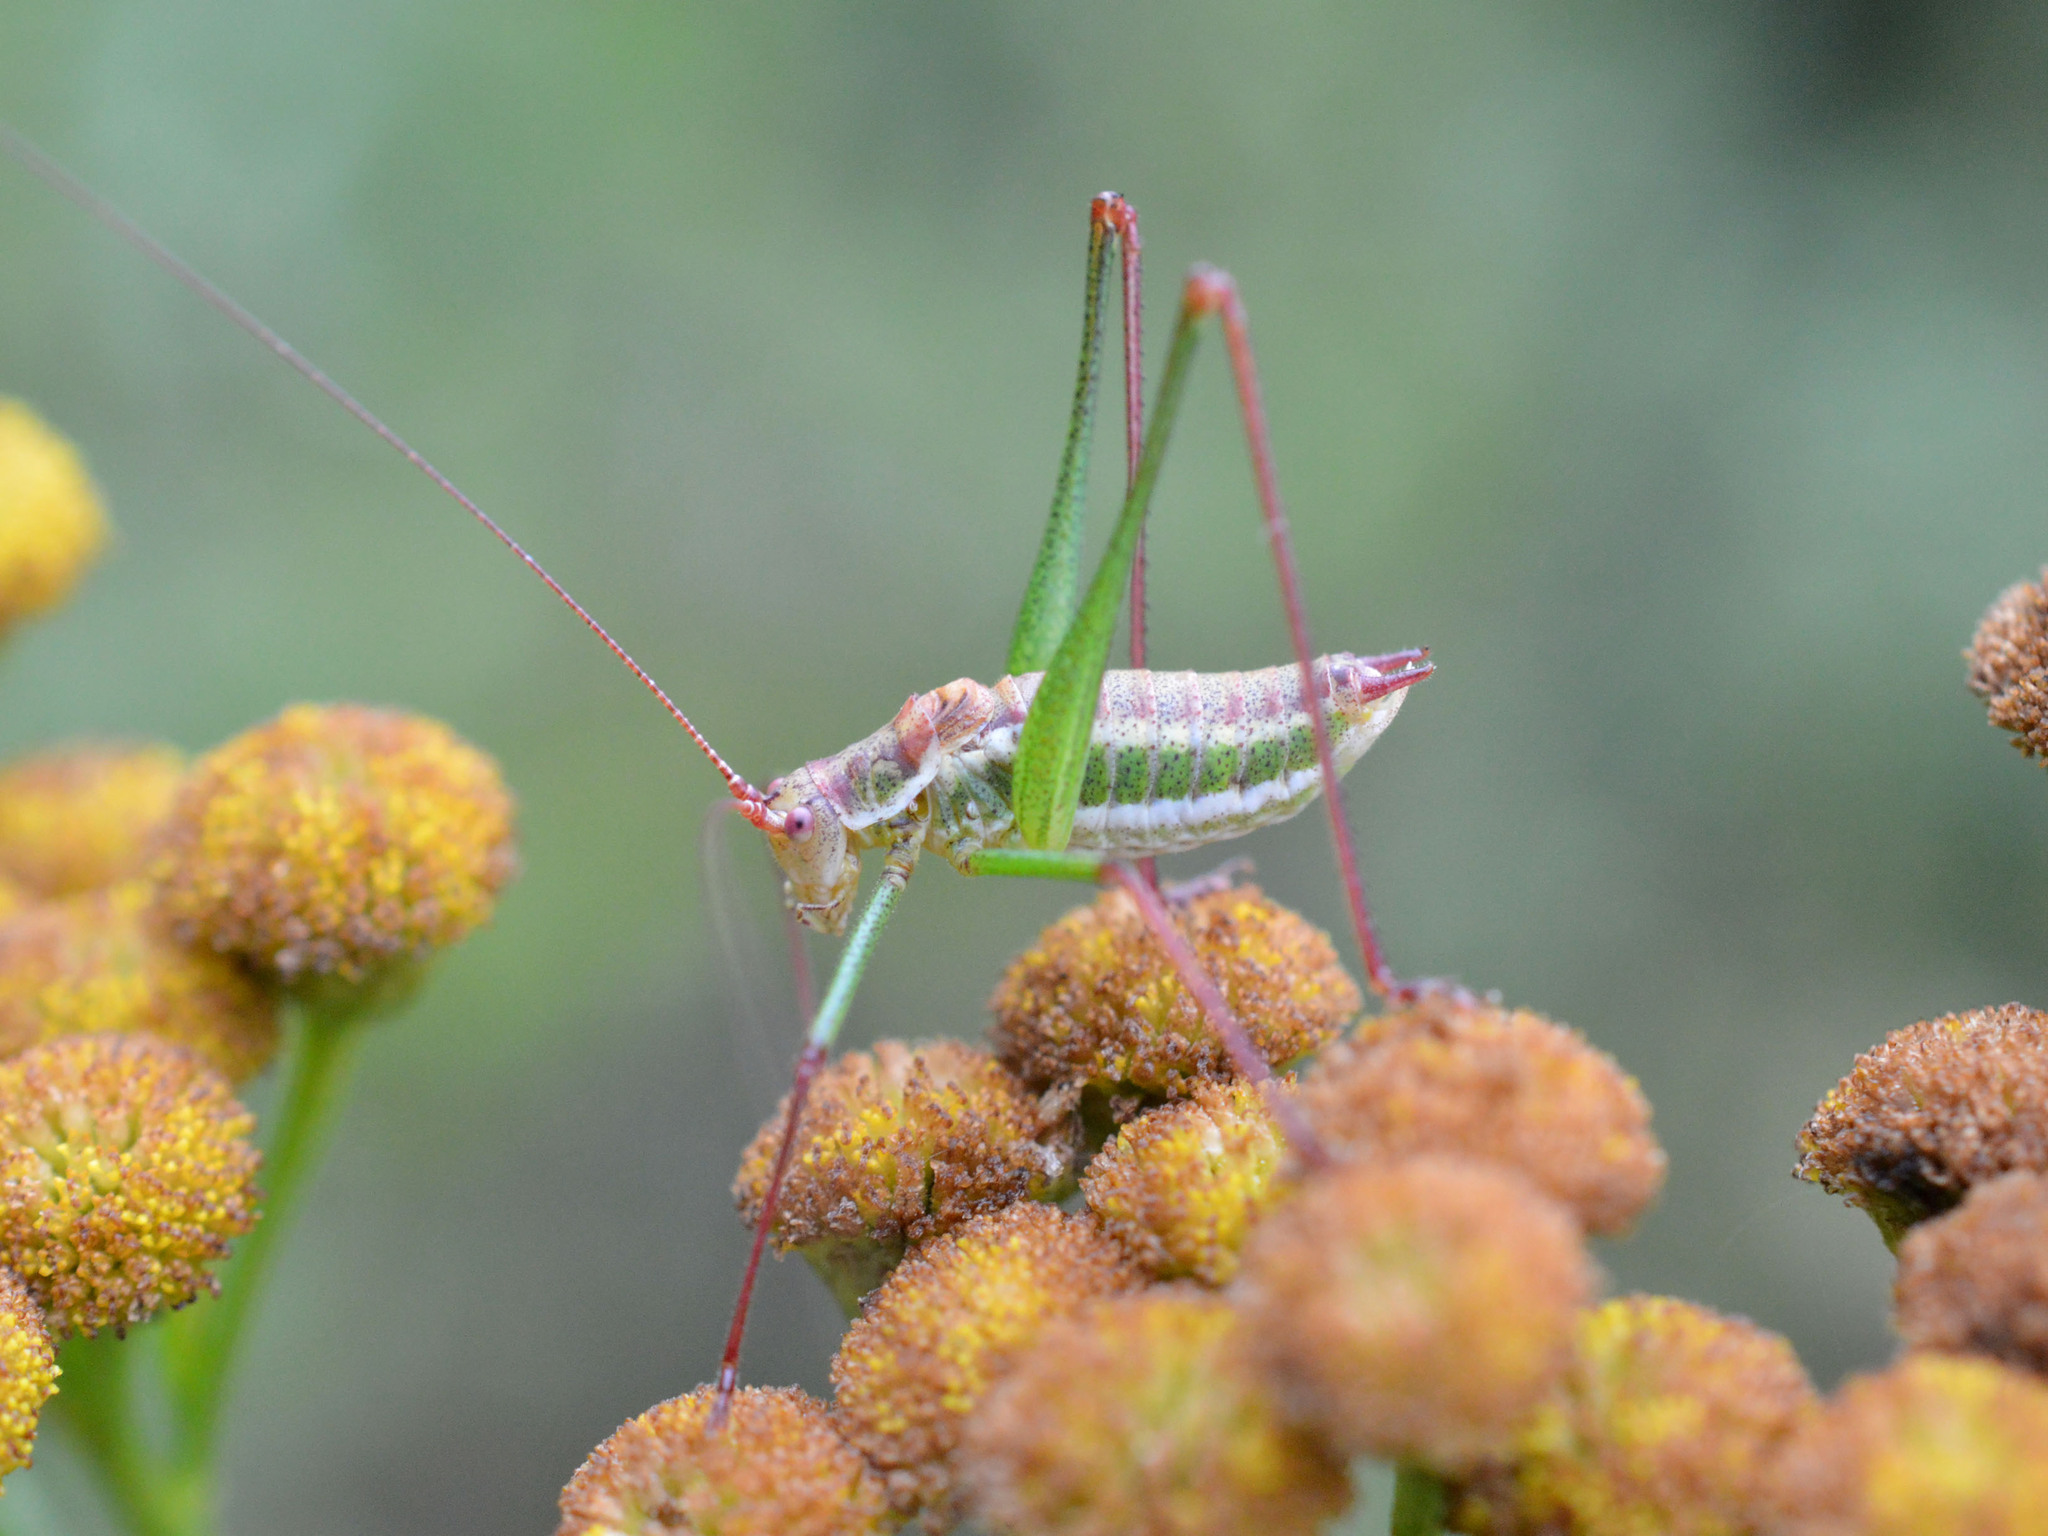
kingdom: Animalia
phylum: Arthropoda
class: Insecta
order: Orthoptera
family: Tettigoniidae
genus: Leptophyes
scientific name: Leptophyes albovittata
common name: Striped bush-cricket
